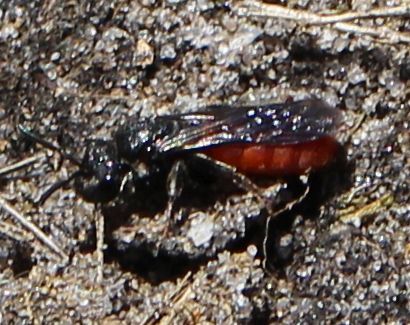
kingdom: Animalia
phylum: Arthropoda
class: Insecta
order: Hymenoptera
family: Halictidae
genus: Sphecodes
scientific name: Sphecodes albilabris
